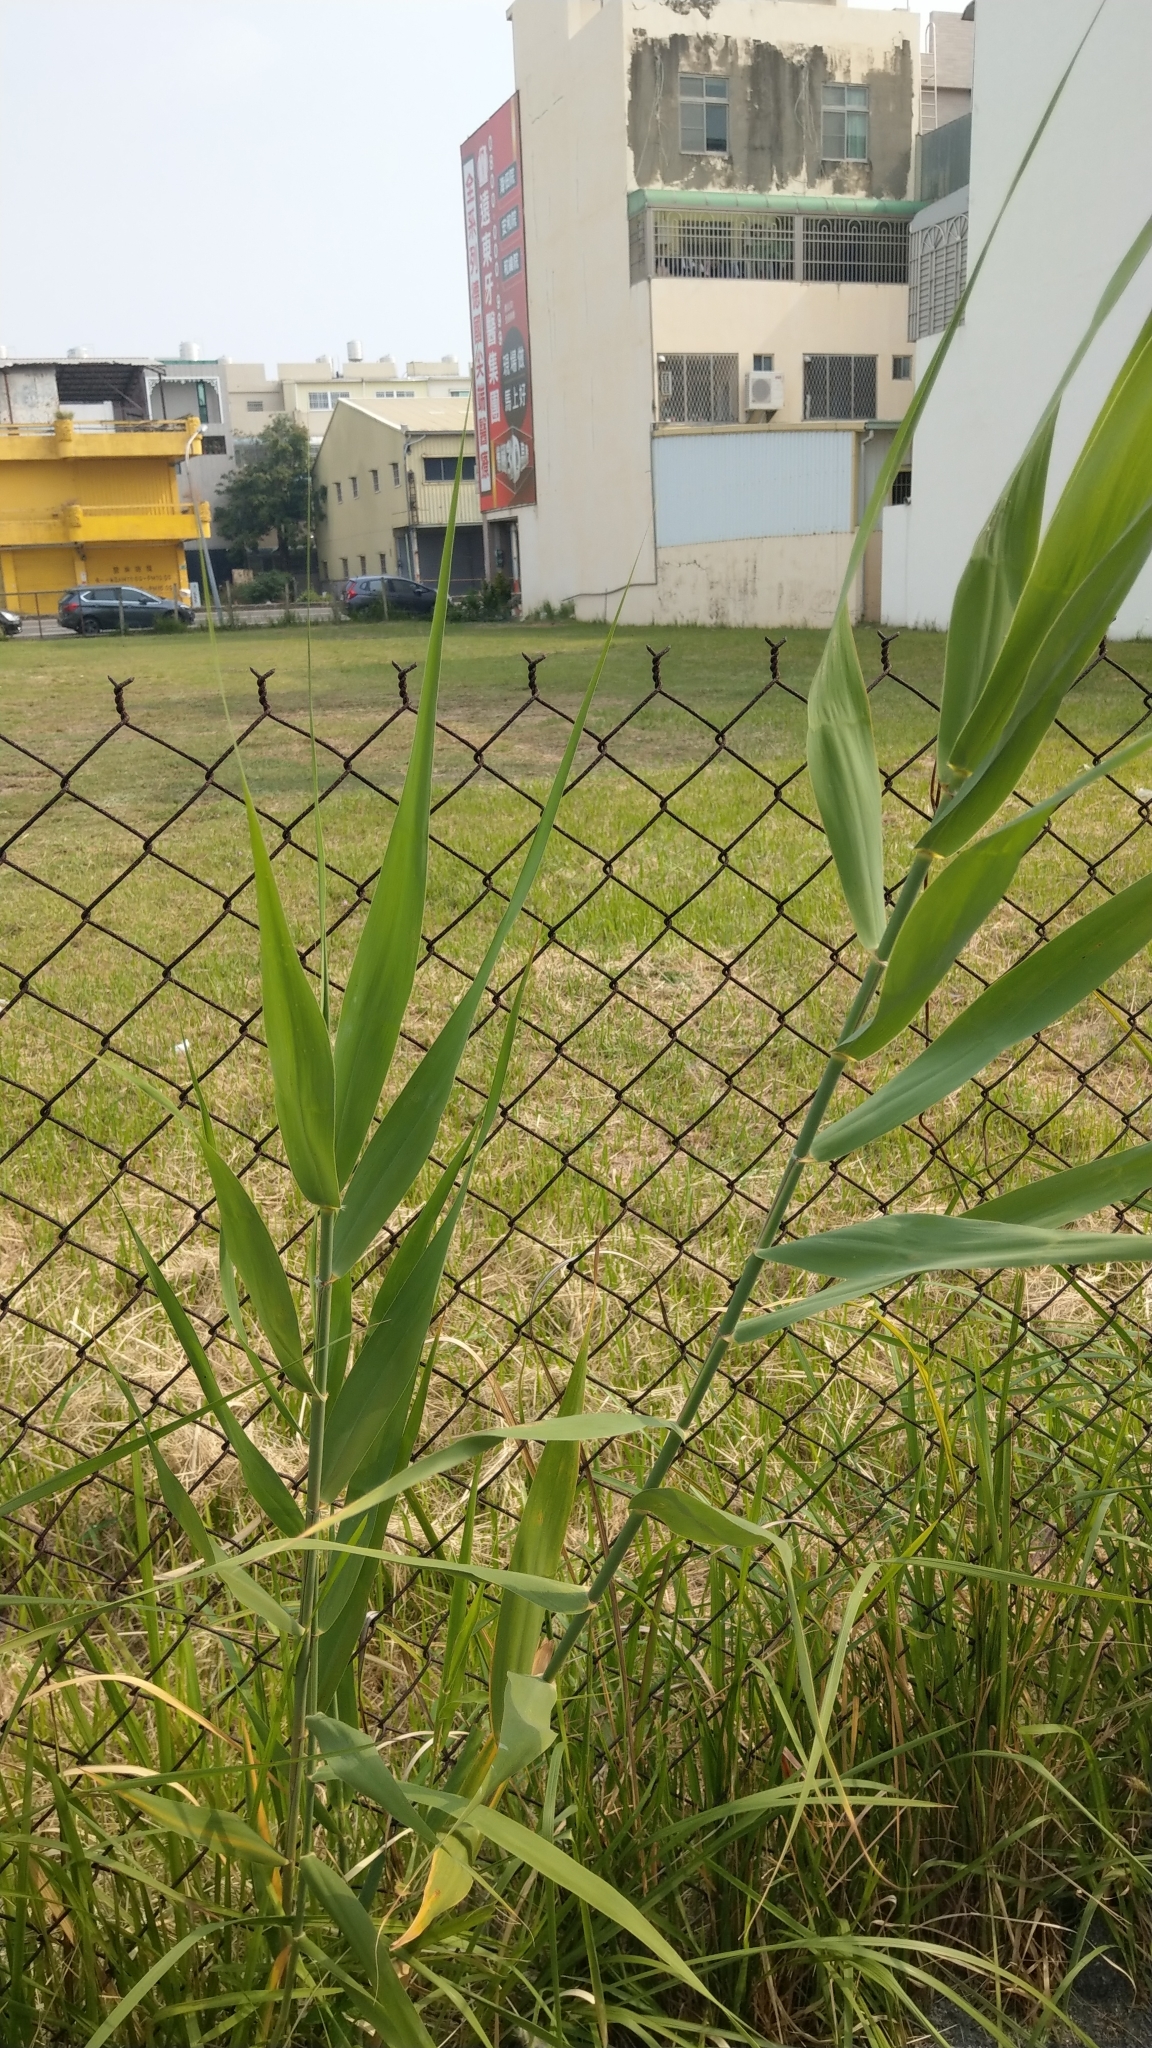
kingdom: Plantae
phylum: Tracheophyta
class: Liliopsida
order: Poales
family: Poaceae
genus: Phragmites
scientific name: Phragmites
